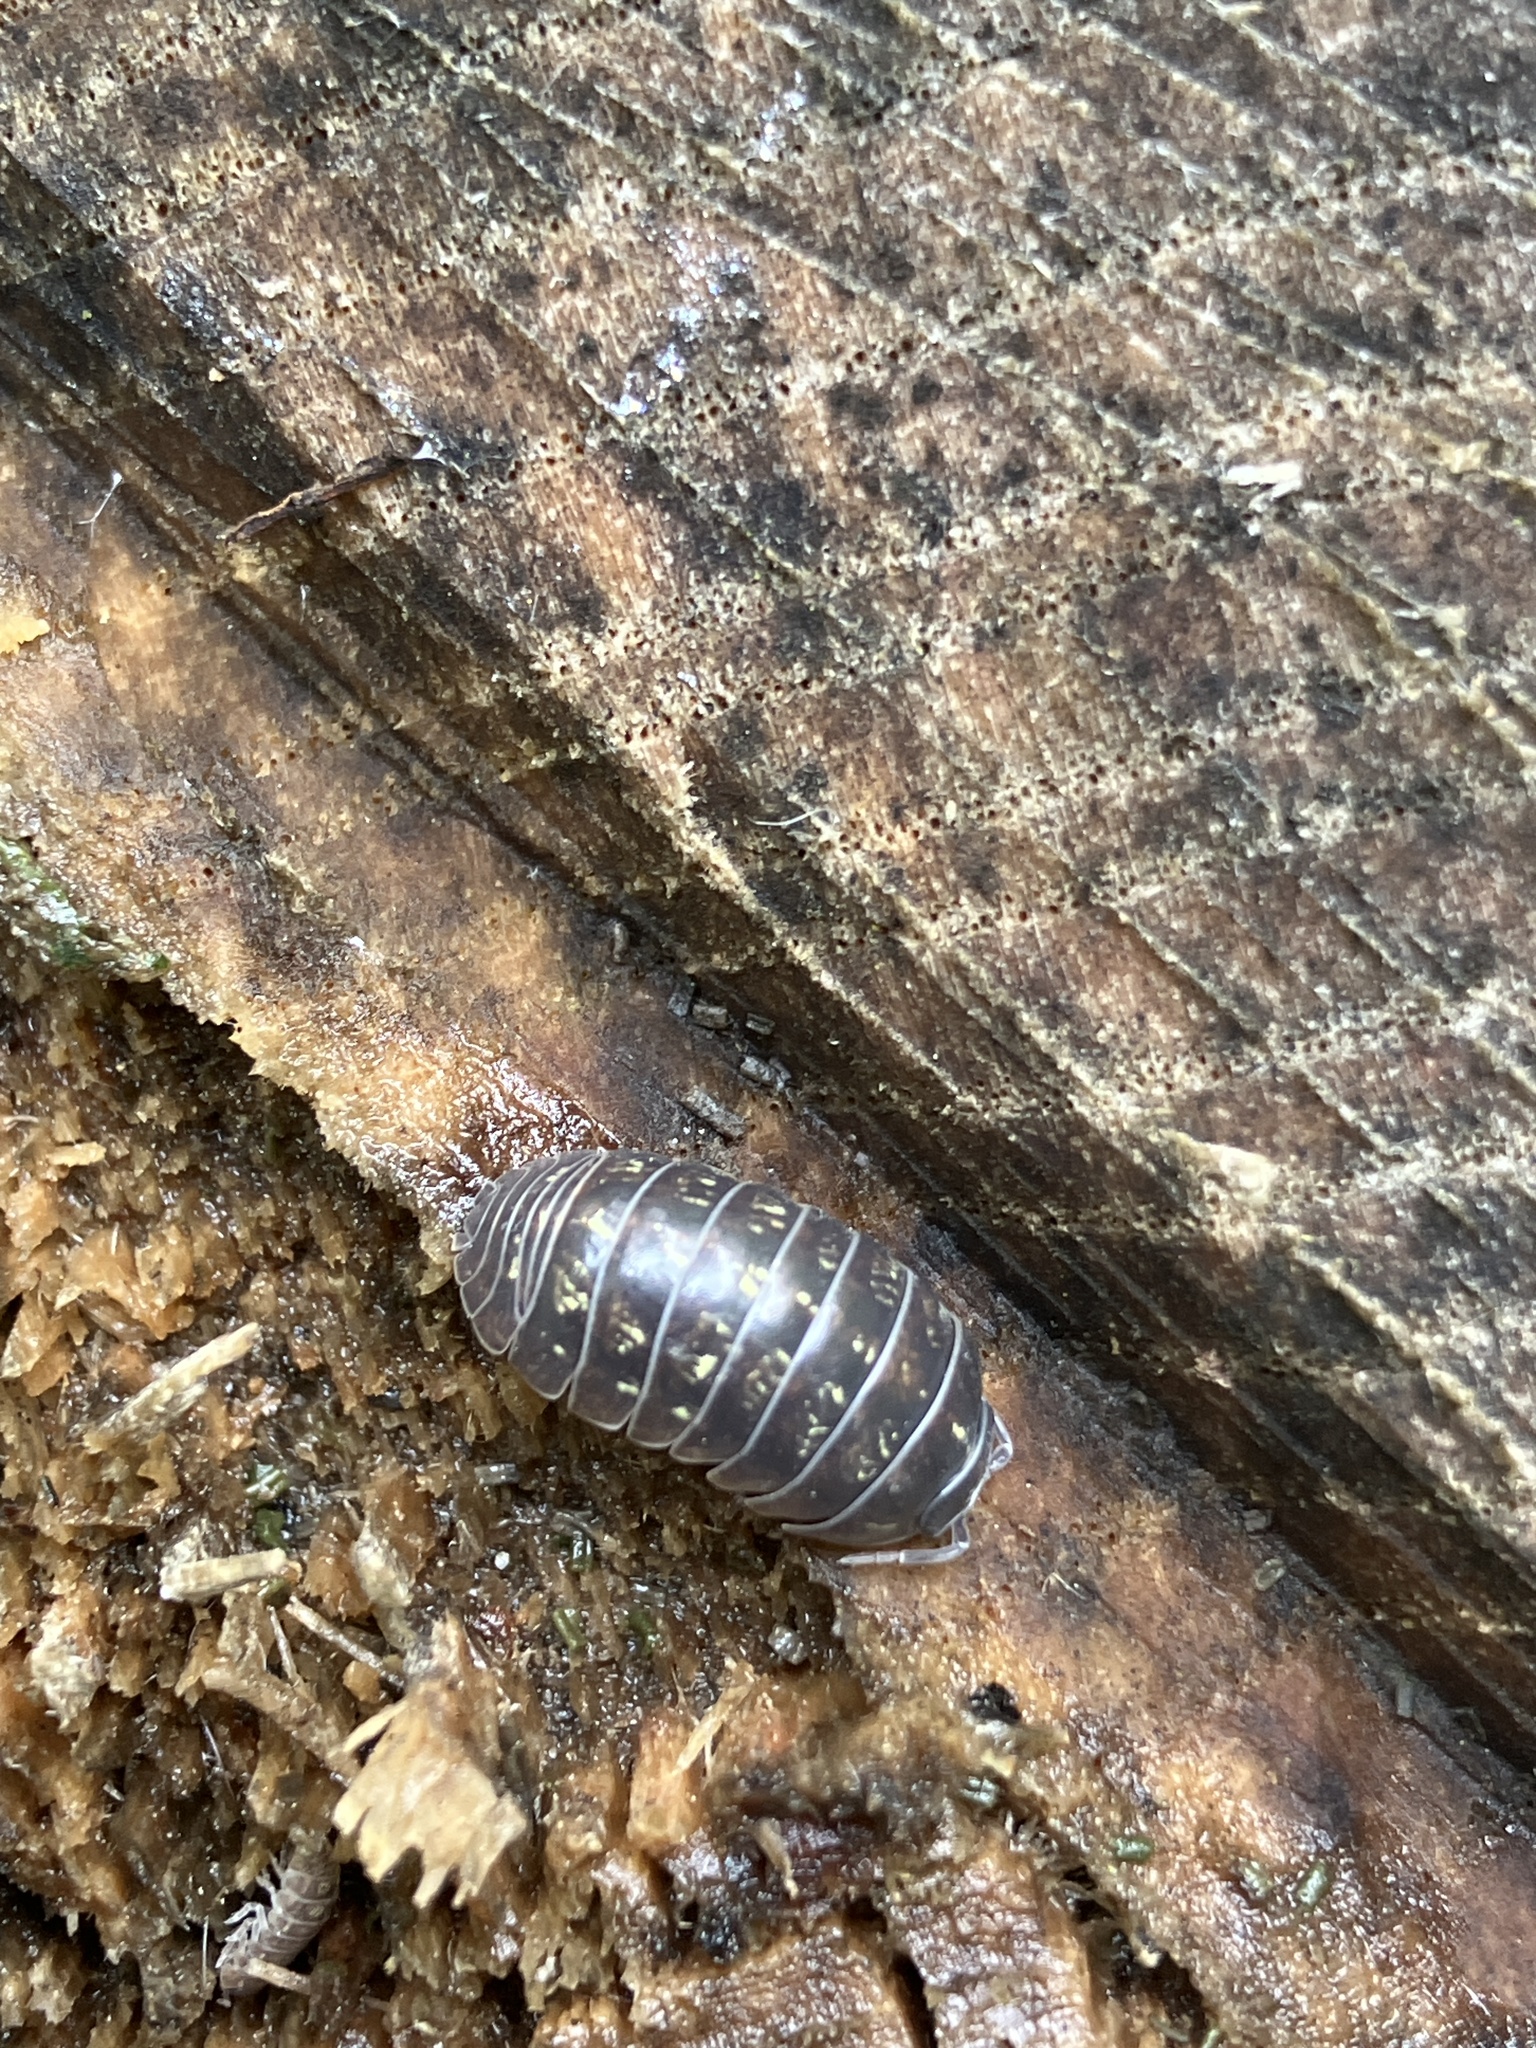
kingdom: Animalia
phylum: Arthropoda
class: Malacostraca
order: Isopoda
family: Armadillidiidae
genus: Armadillidium
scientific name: Armadillidium vulgare
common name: Common pill woodlouse
